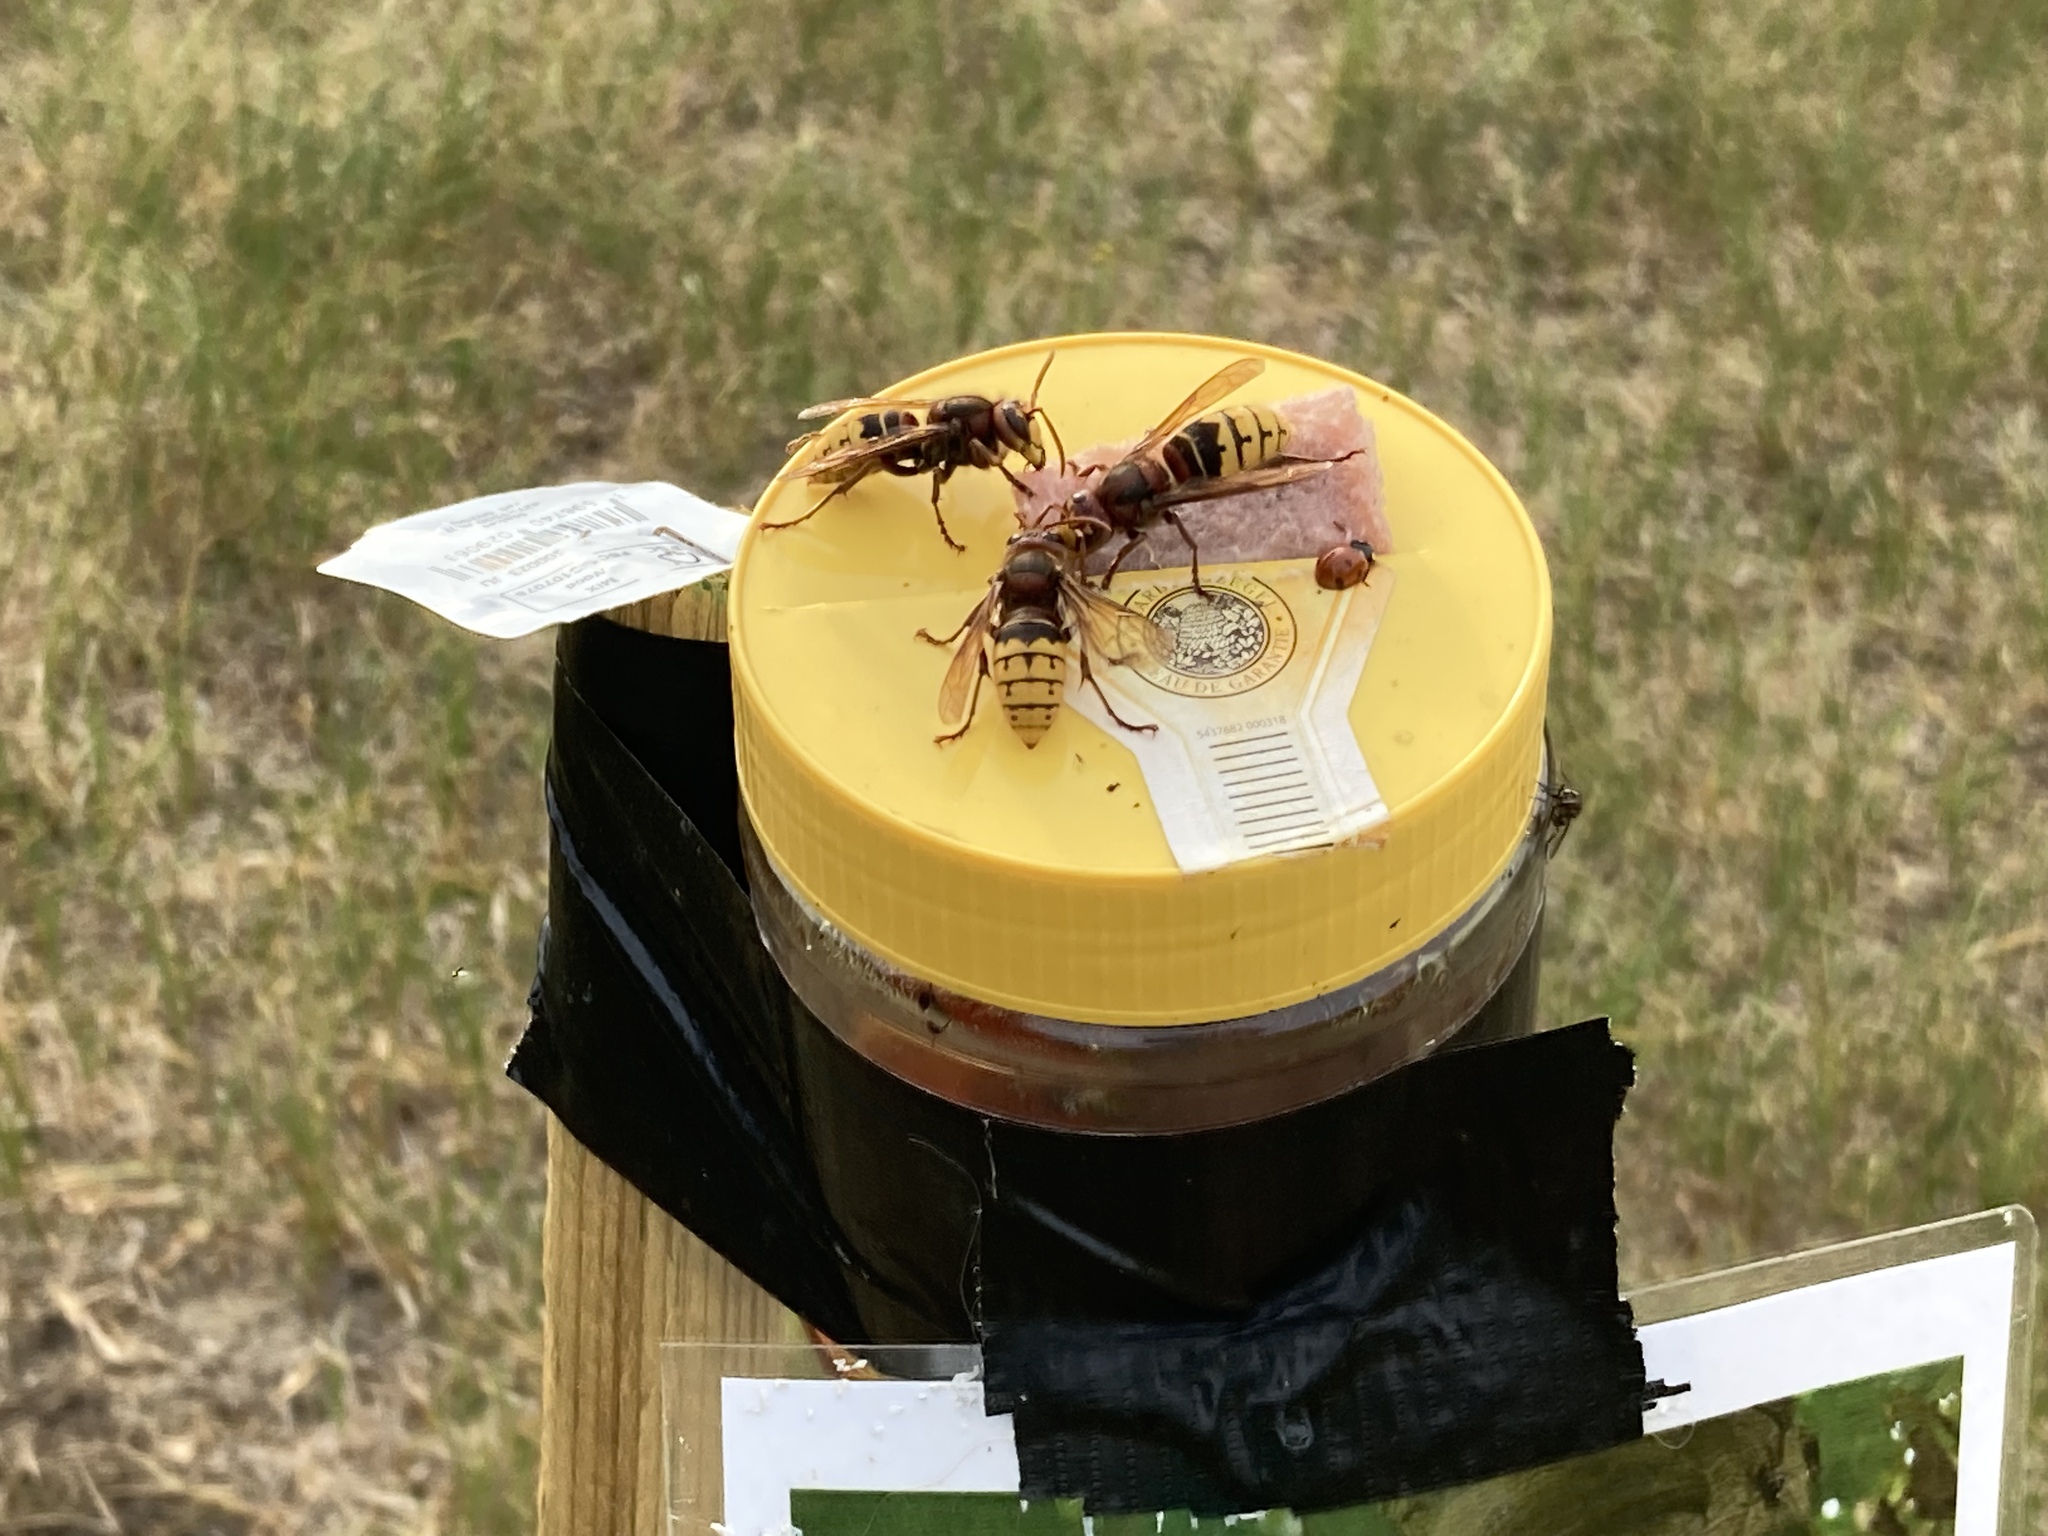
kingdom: Animalia
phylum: Arthropoda
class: Insecta
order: Hymenoptera
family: Vespidae
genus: Vespa
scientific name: Vespa crabro
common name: Hornet
